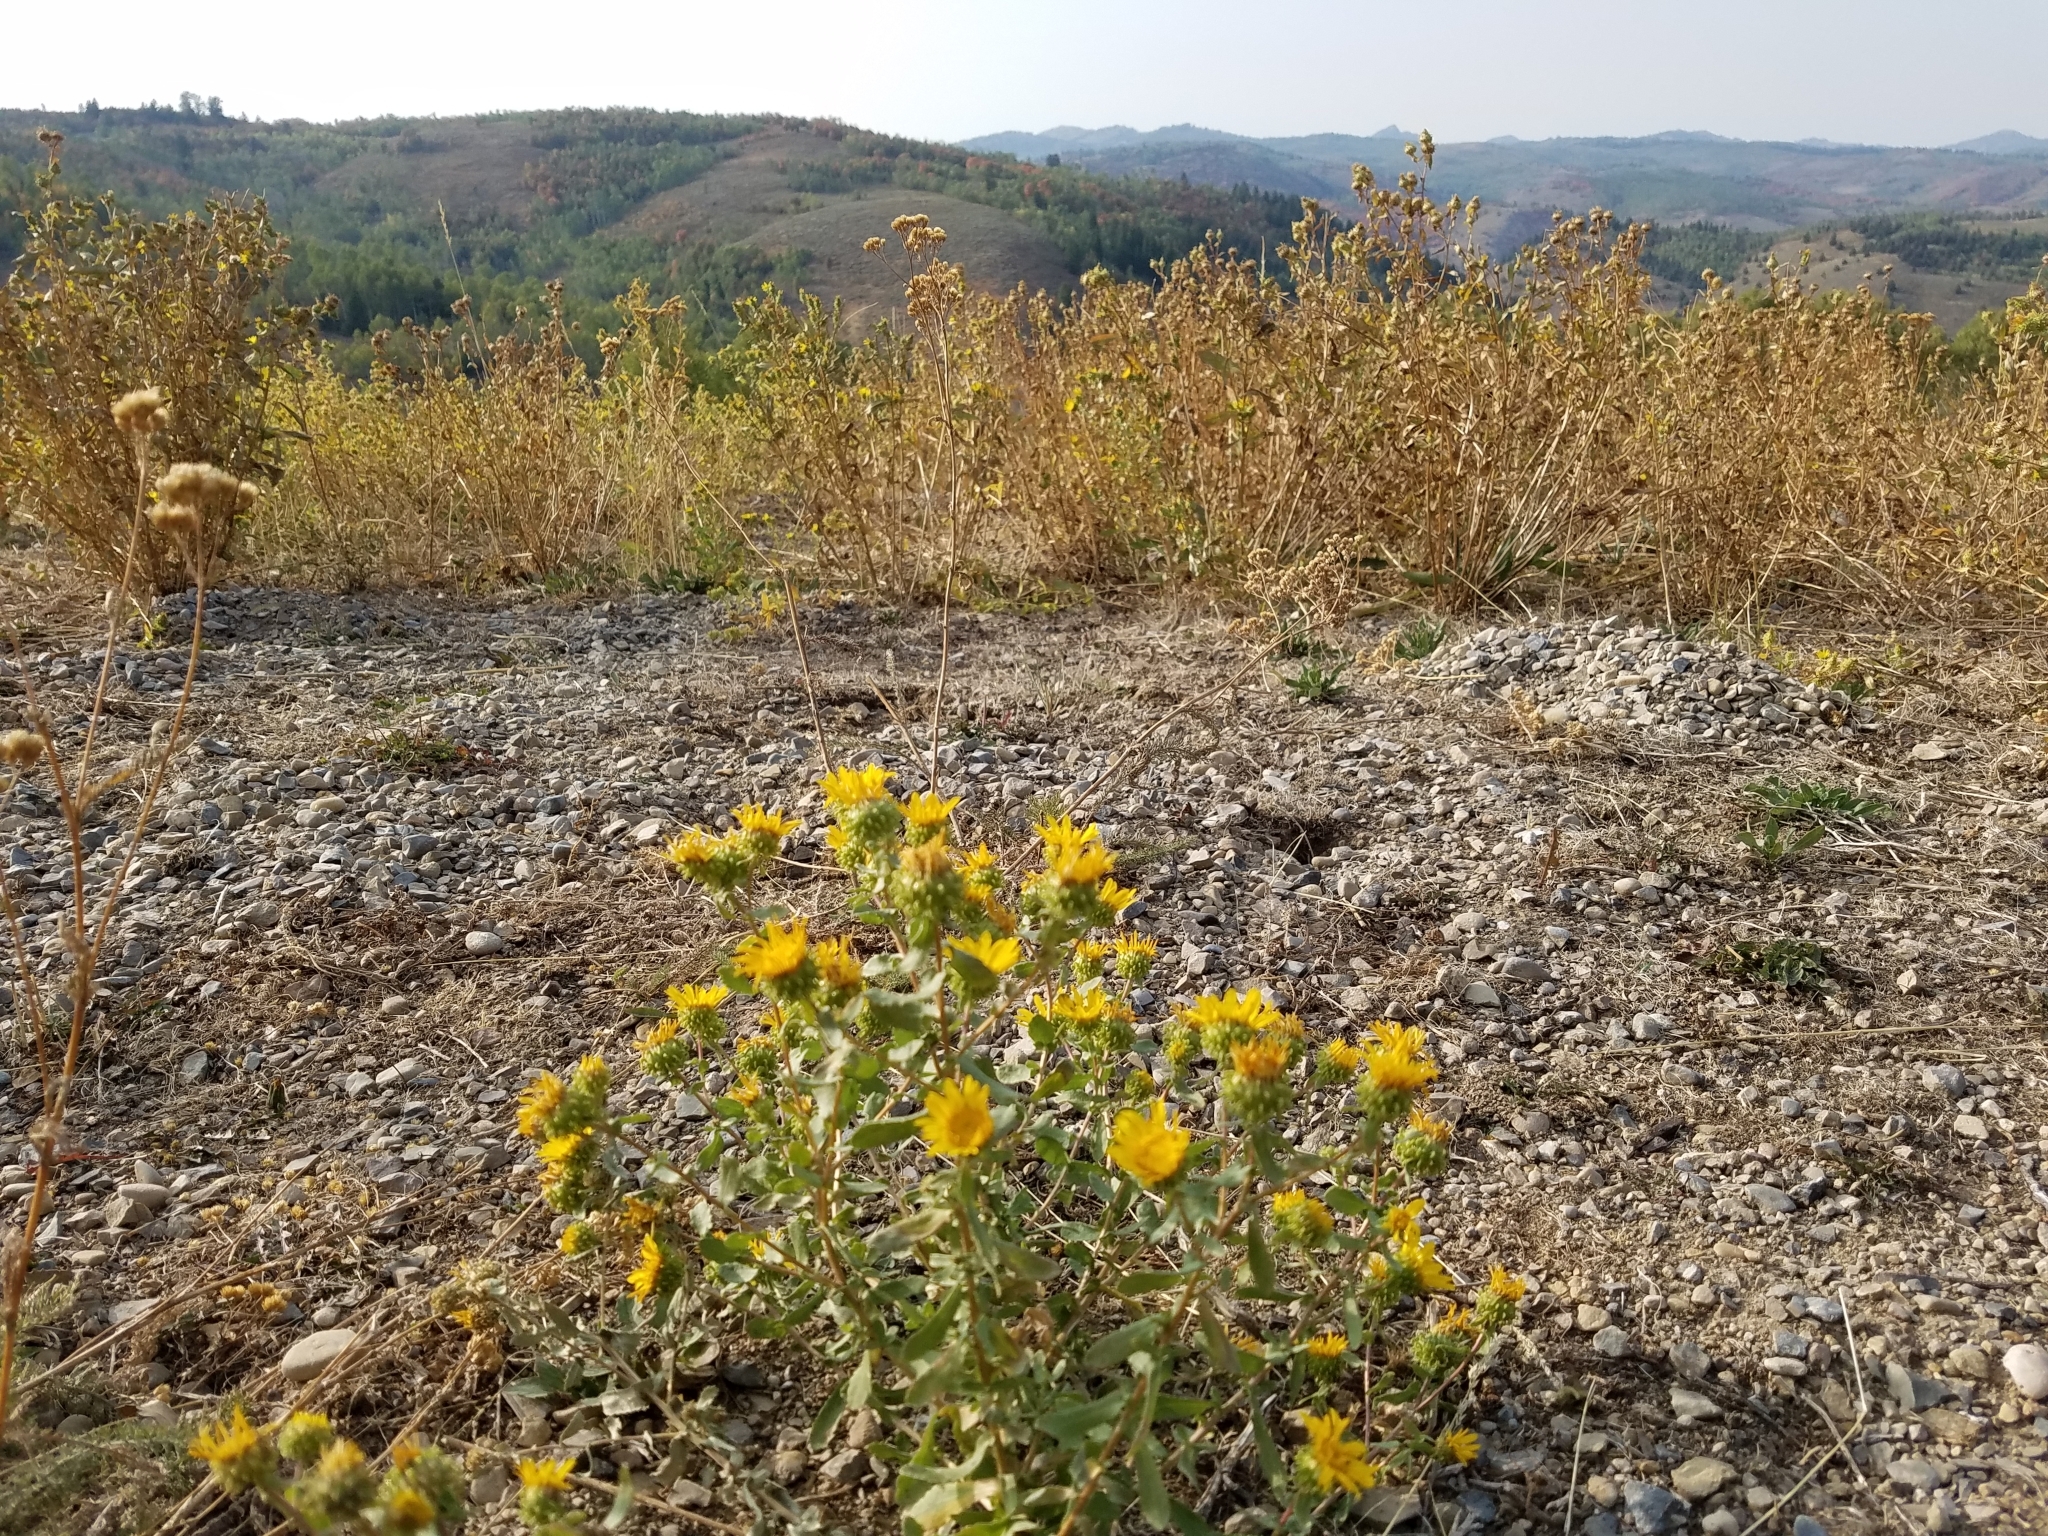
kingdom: Plantae
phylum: Tracheophyta
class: Magnoliopsida
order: Asterales
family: Asteraceae
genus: Grindelia
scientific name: Grindelia squarrosa
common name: Curly-cup gumweed
